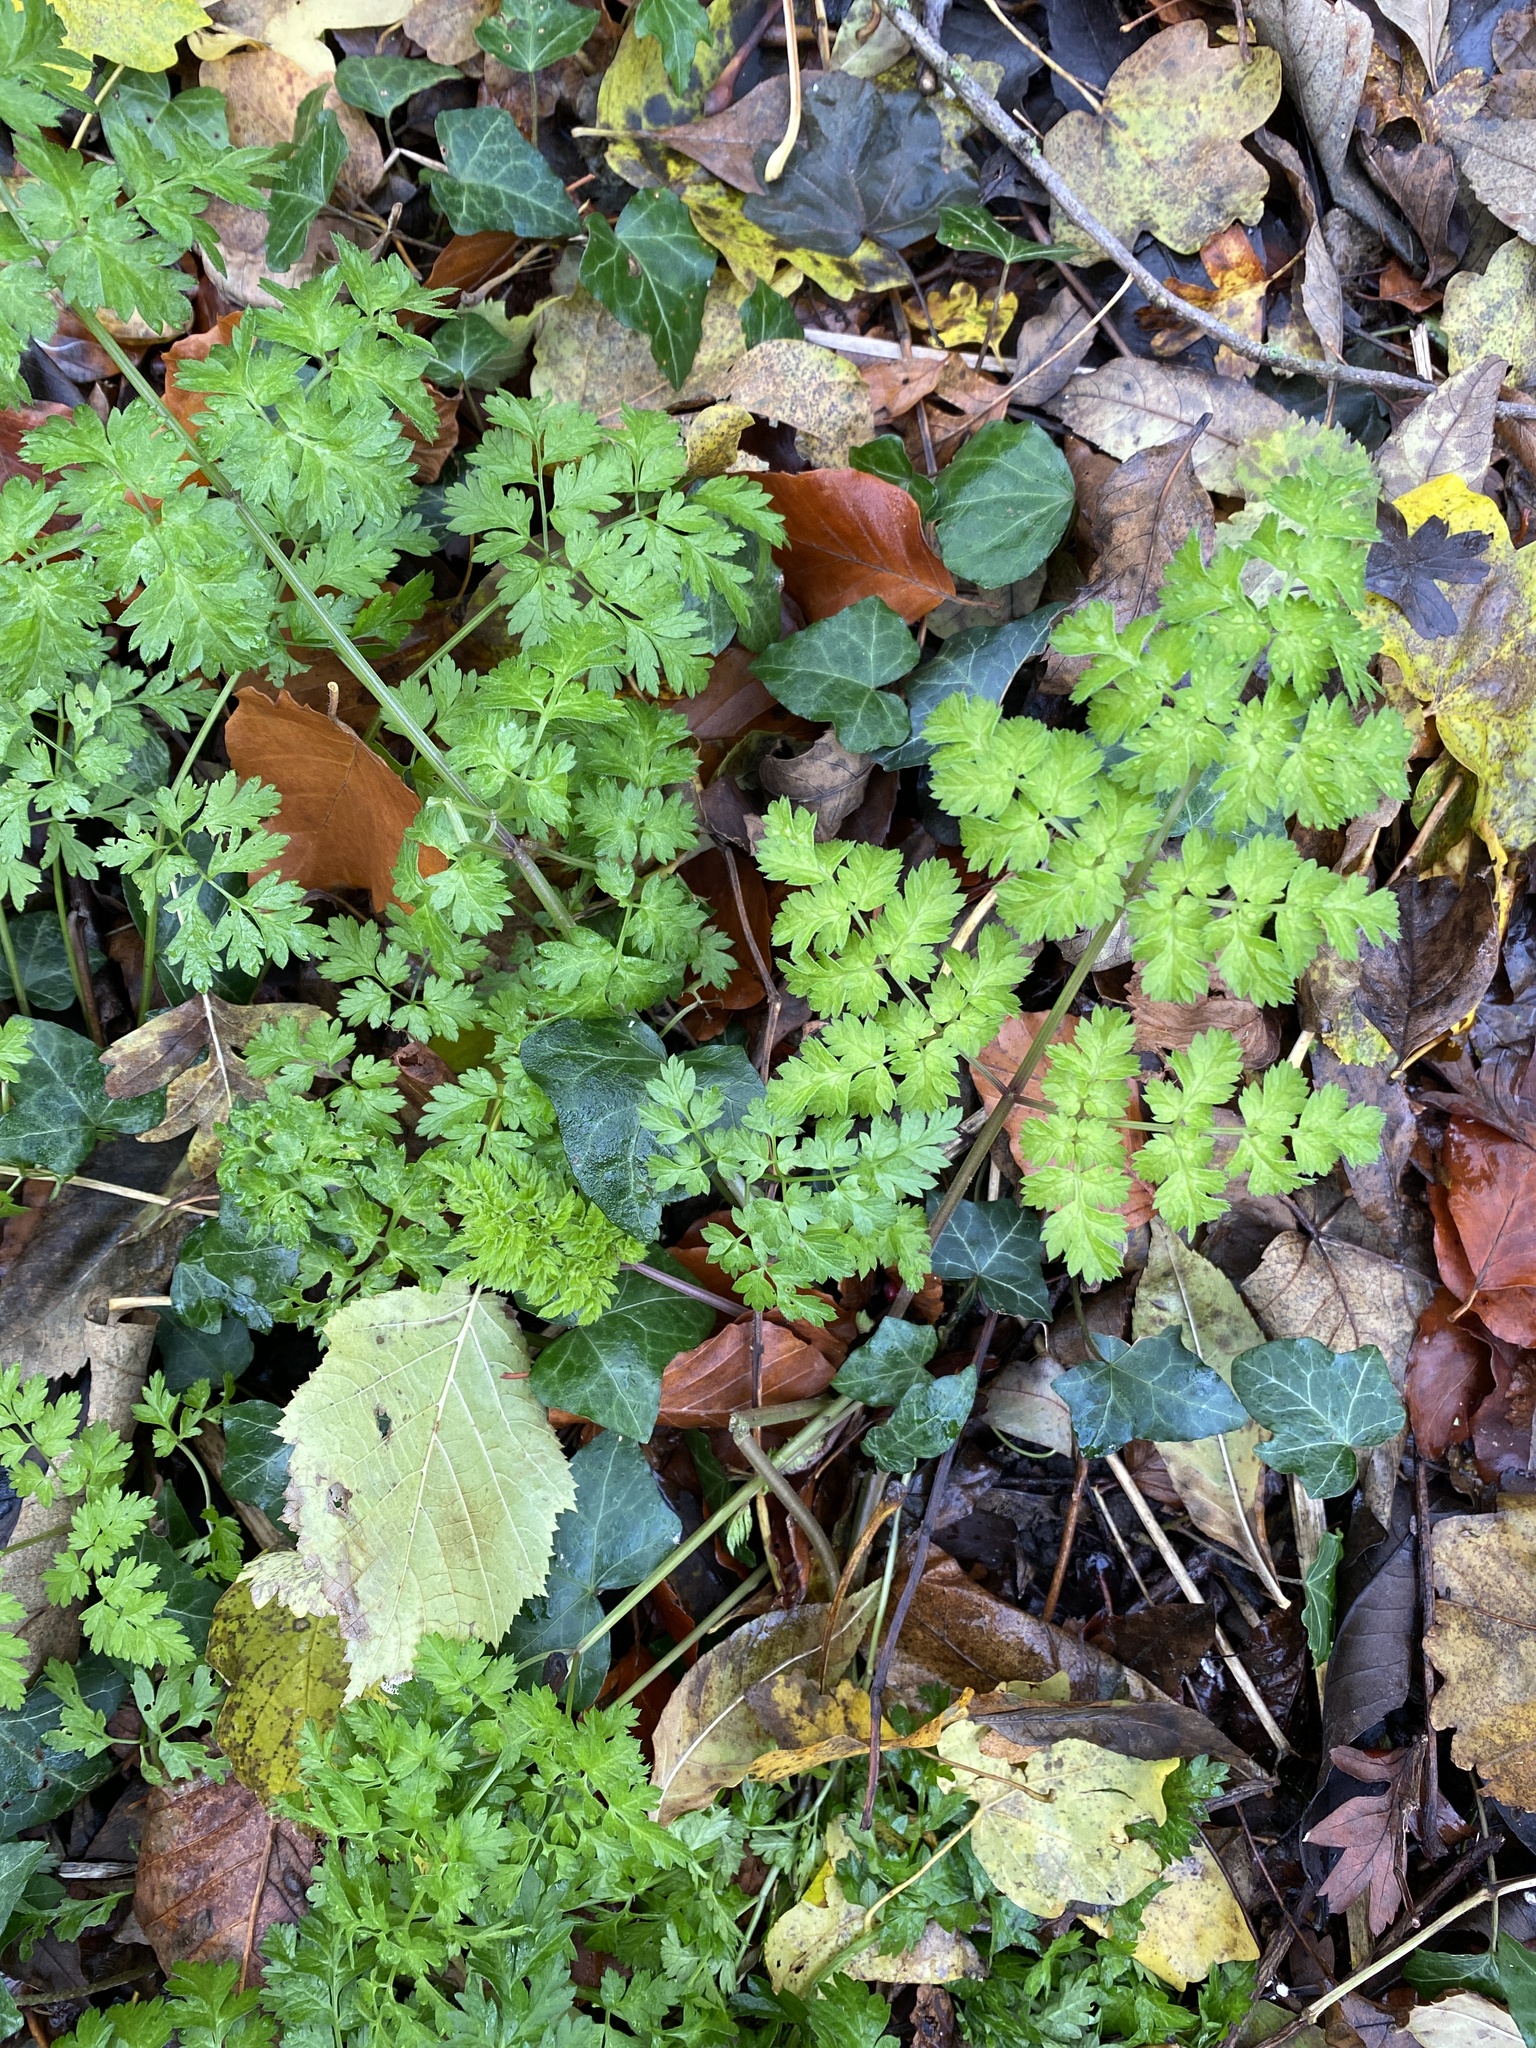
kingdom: Plantae
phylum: Tracheophyta
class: Magnoliopsida
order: Apiales
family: Apiaceae
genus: Anthriscus
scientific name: Anthriscus sylvestris
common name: Cow parsley
